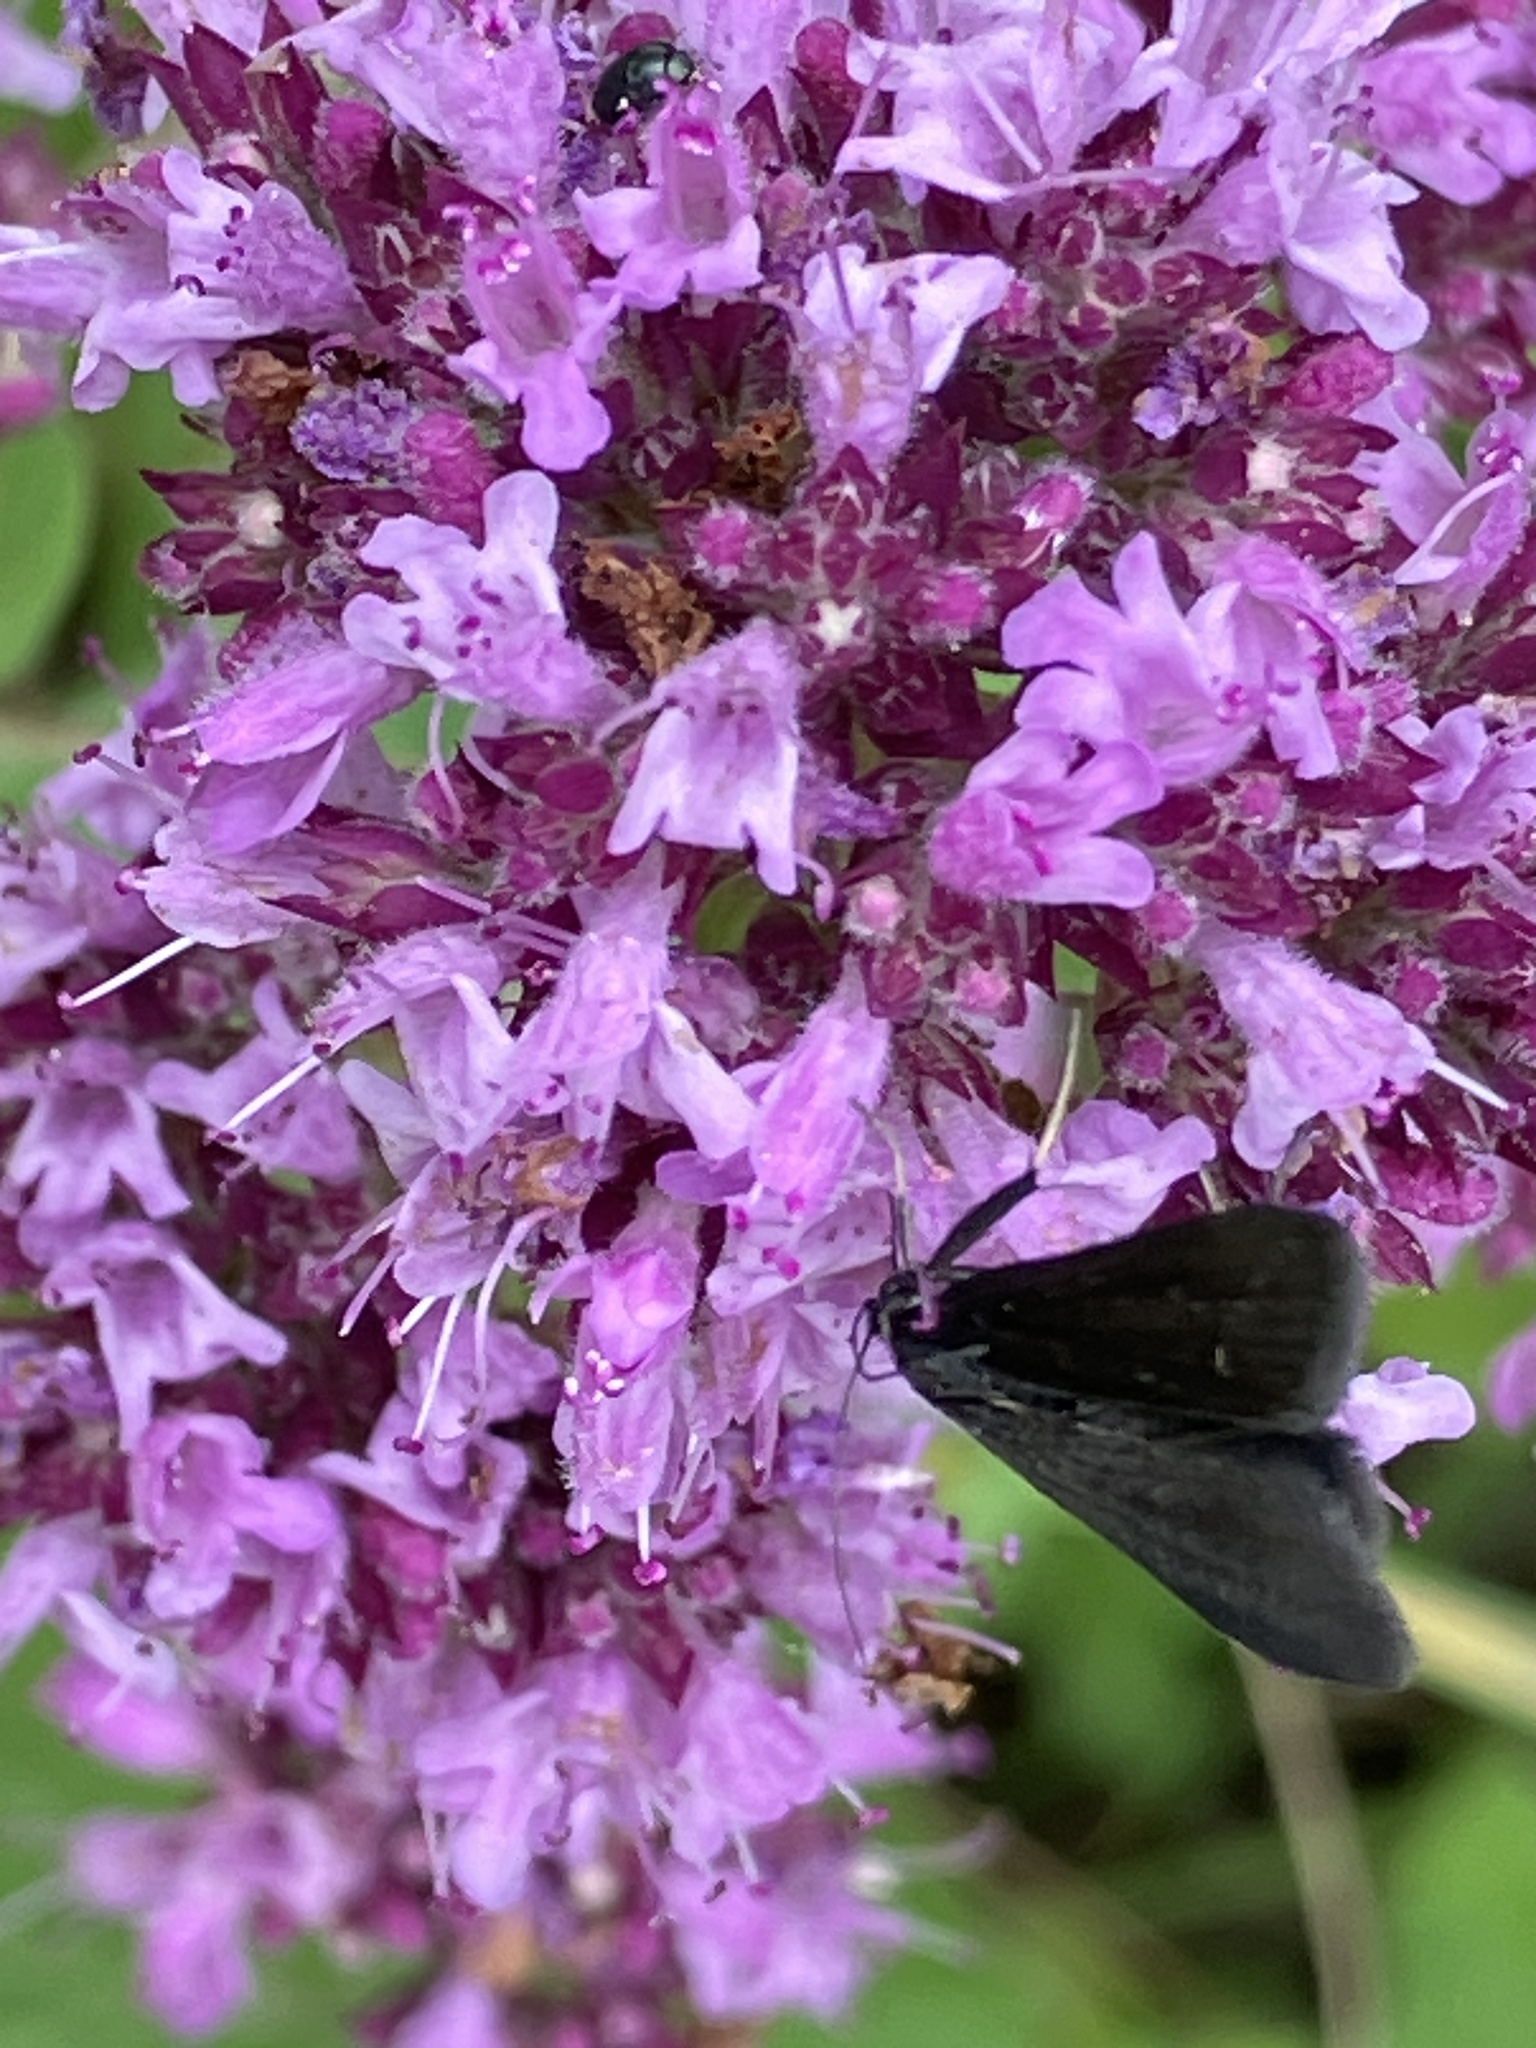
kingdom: Animalia
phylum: Arthropoda
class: Insecta
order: Lepidoptera
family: Crambidae
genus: Pyrausta
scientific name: Pyrausta coracinalis
